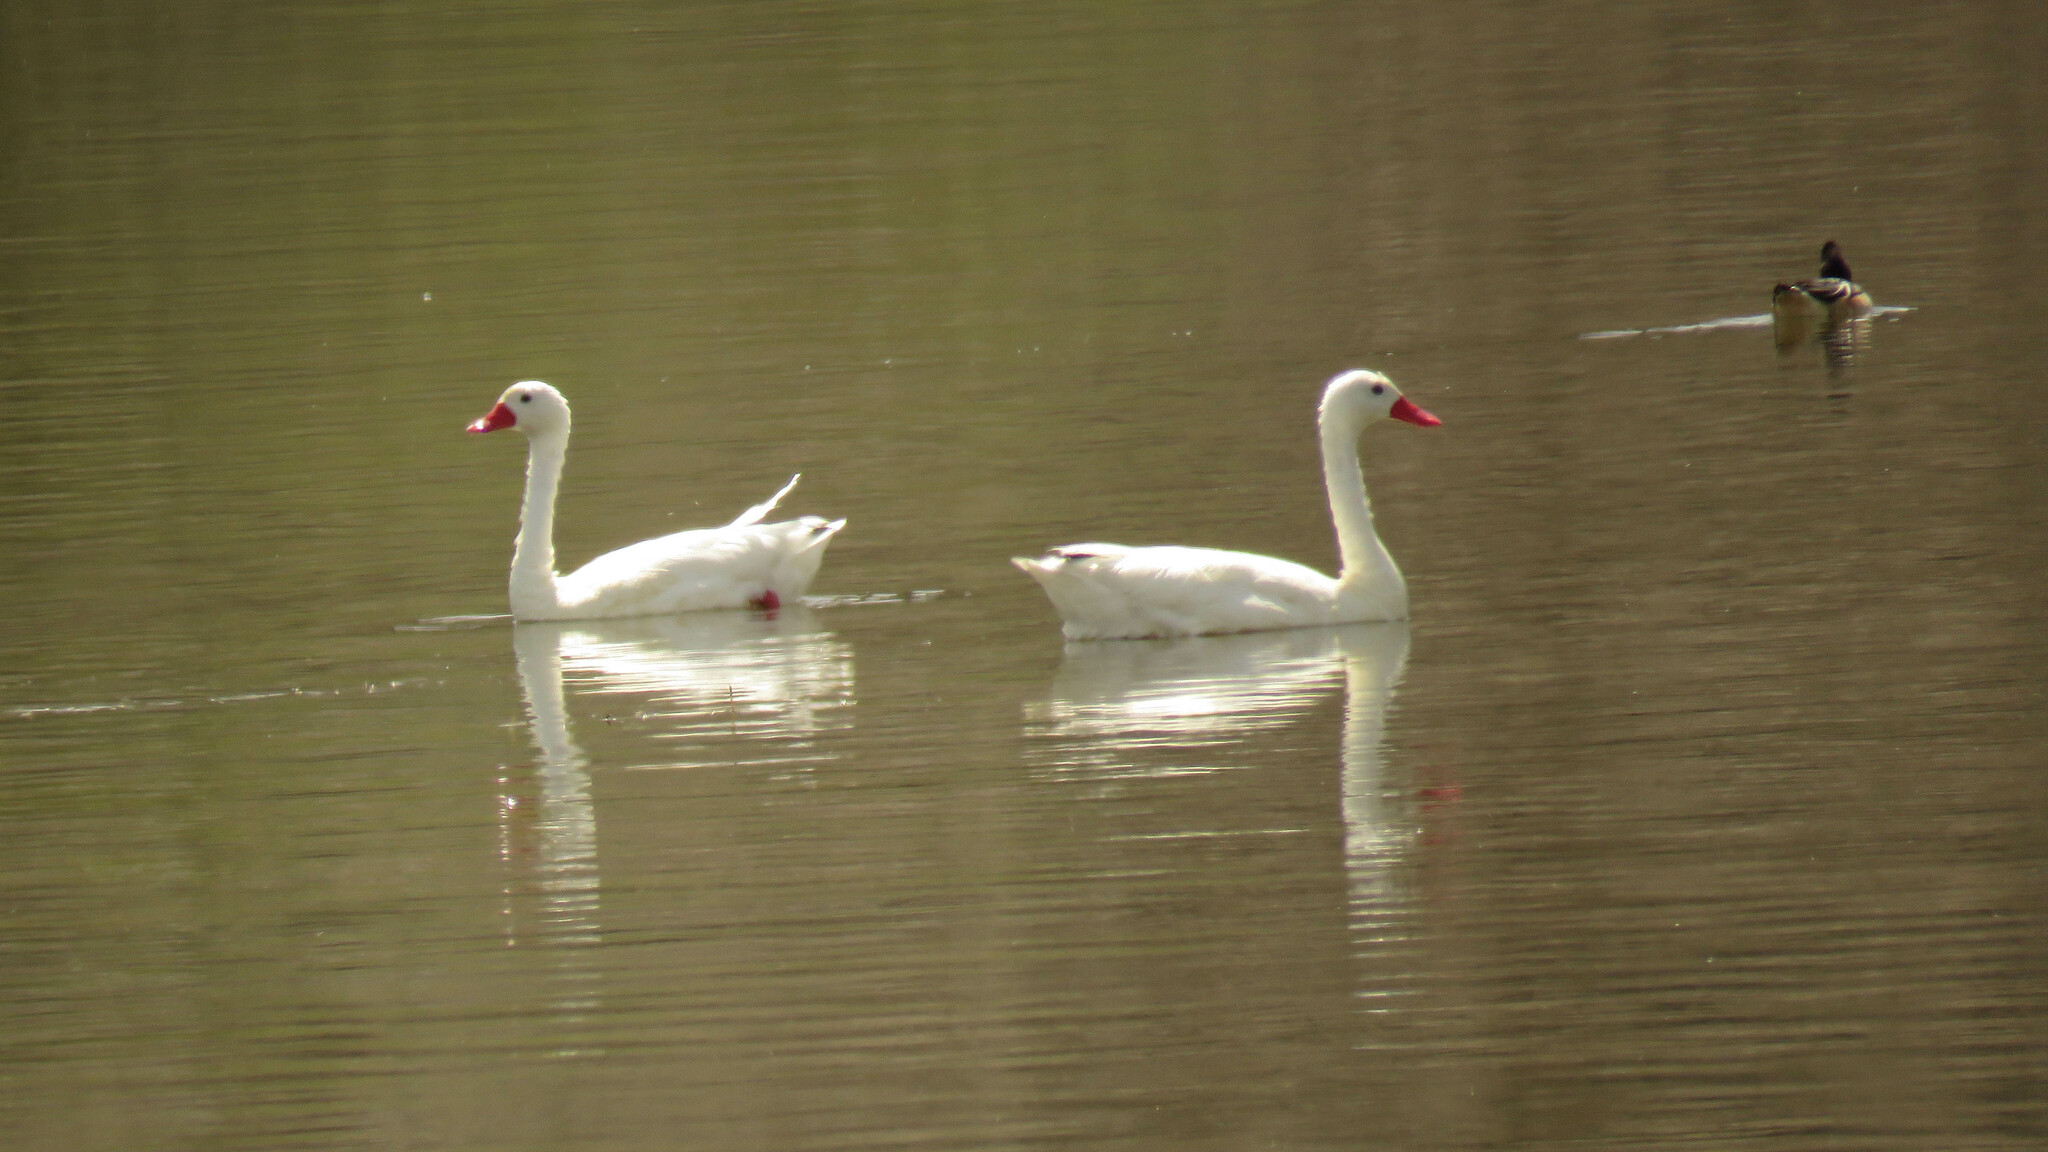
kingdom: Animalia
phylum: Chordata
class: Aves
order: Anseriformes
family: Anatidae
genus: Coscoroba
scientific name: Coscoroba coscoroba
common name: Coscoroba swan
